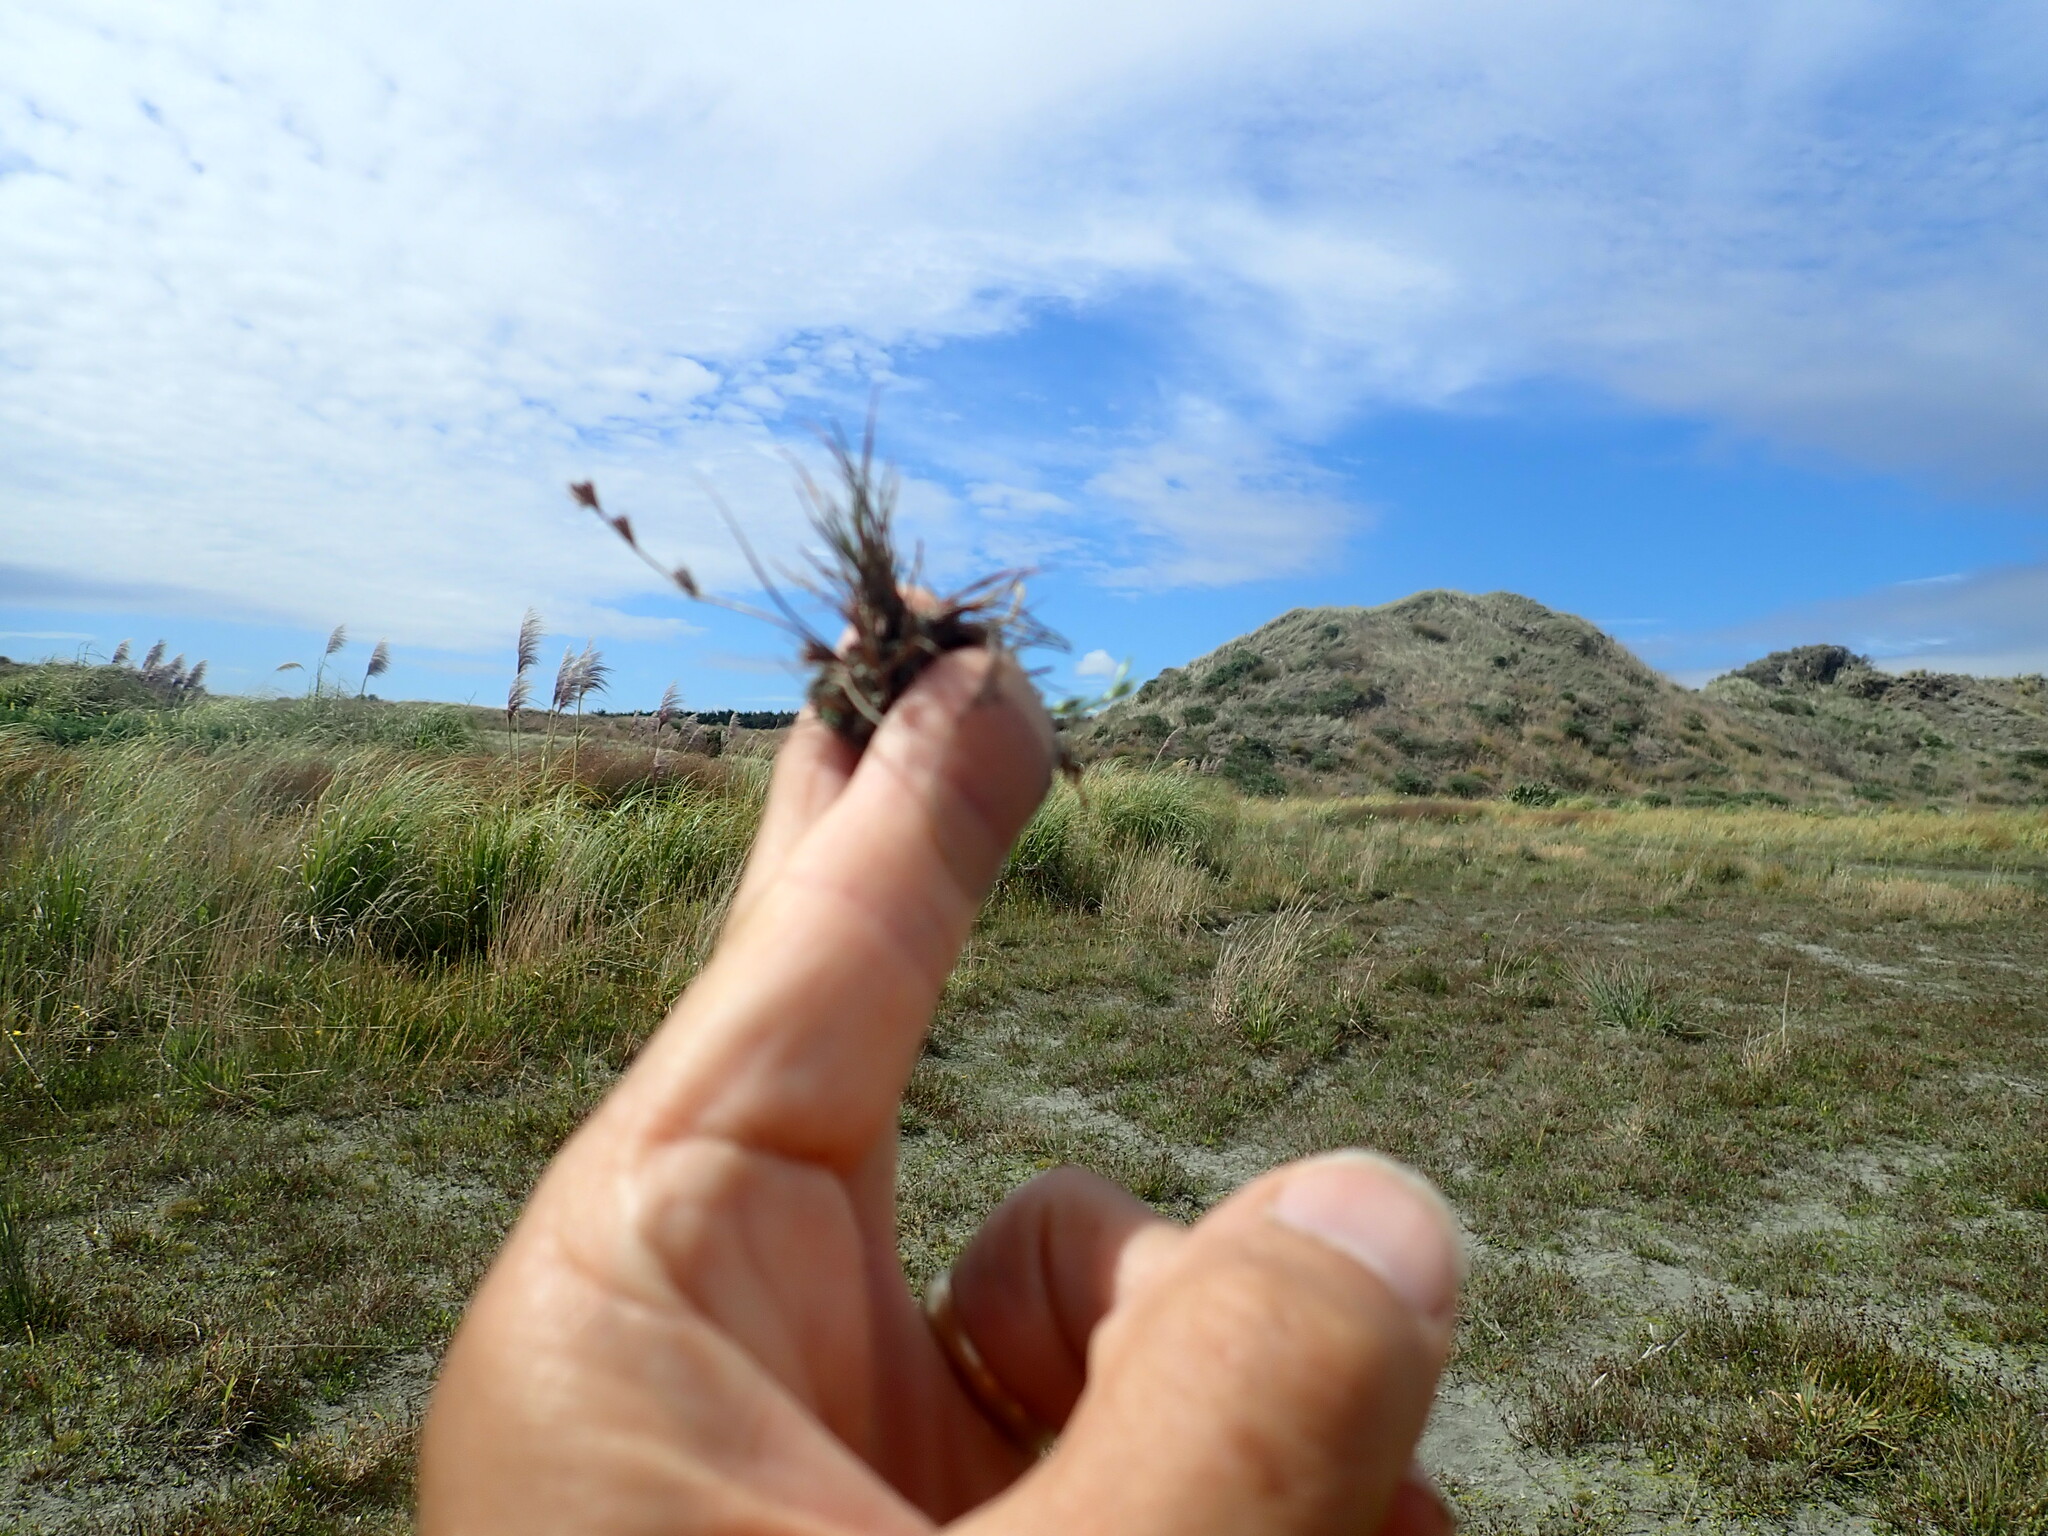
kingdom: Plantae
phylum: Tracheophyta
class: Liliopsida
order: Poales
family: Juncaceae
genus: Juncus
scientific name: Juncus bufonius
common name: Toad rush
